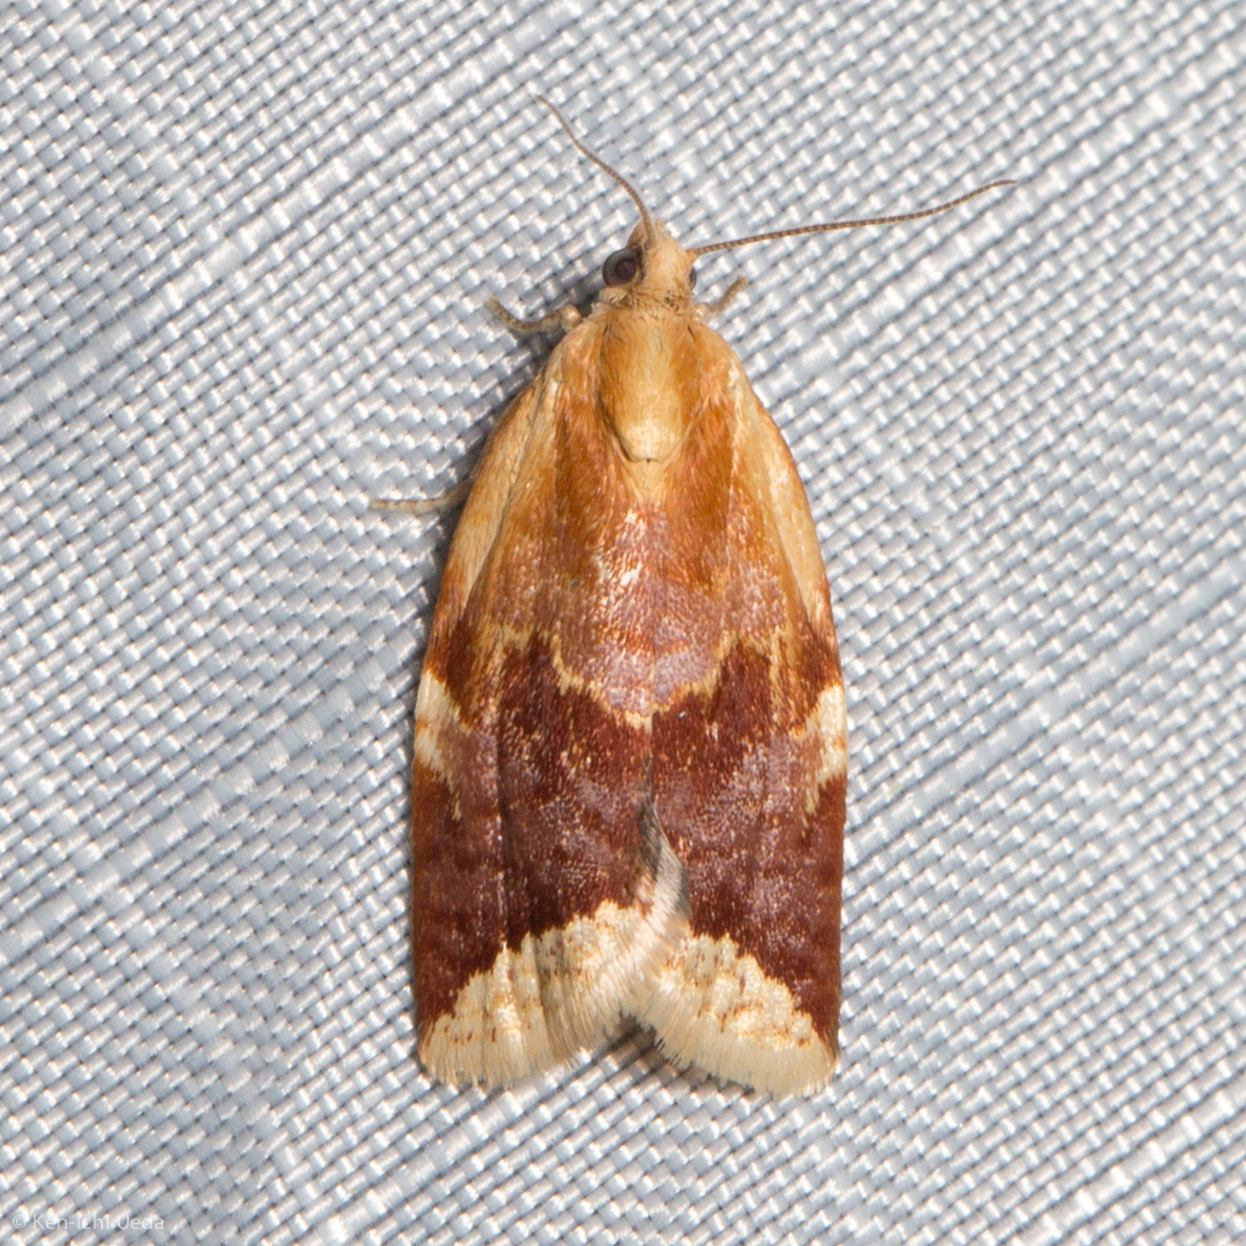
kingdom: Animalia
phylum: Arthropoda
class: Insecta
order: Lepidoptera
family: Tortricidae
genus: Clepsis
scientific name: Clepsis persicana
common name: White triangle tortrix
